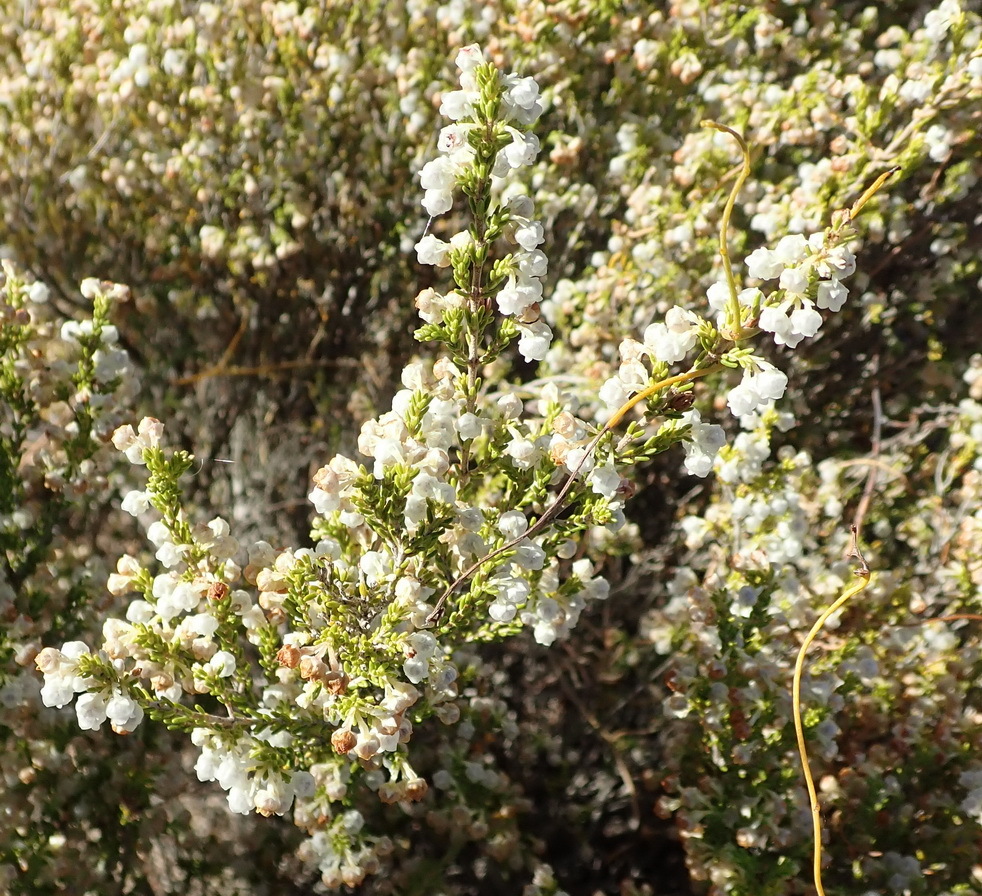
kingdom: Plantae
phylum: Tracheophyta
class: Magnoliopsida
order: Ericales
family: Ericaceae
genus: Erica
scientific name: Erica syngenesia
